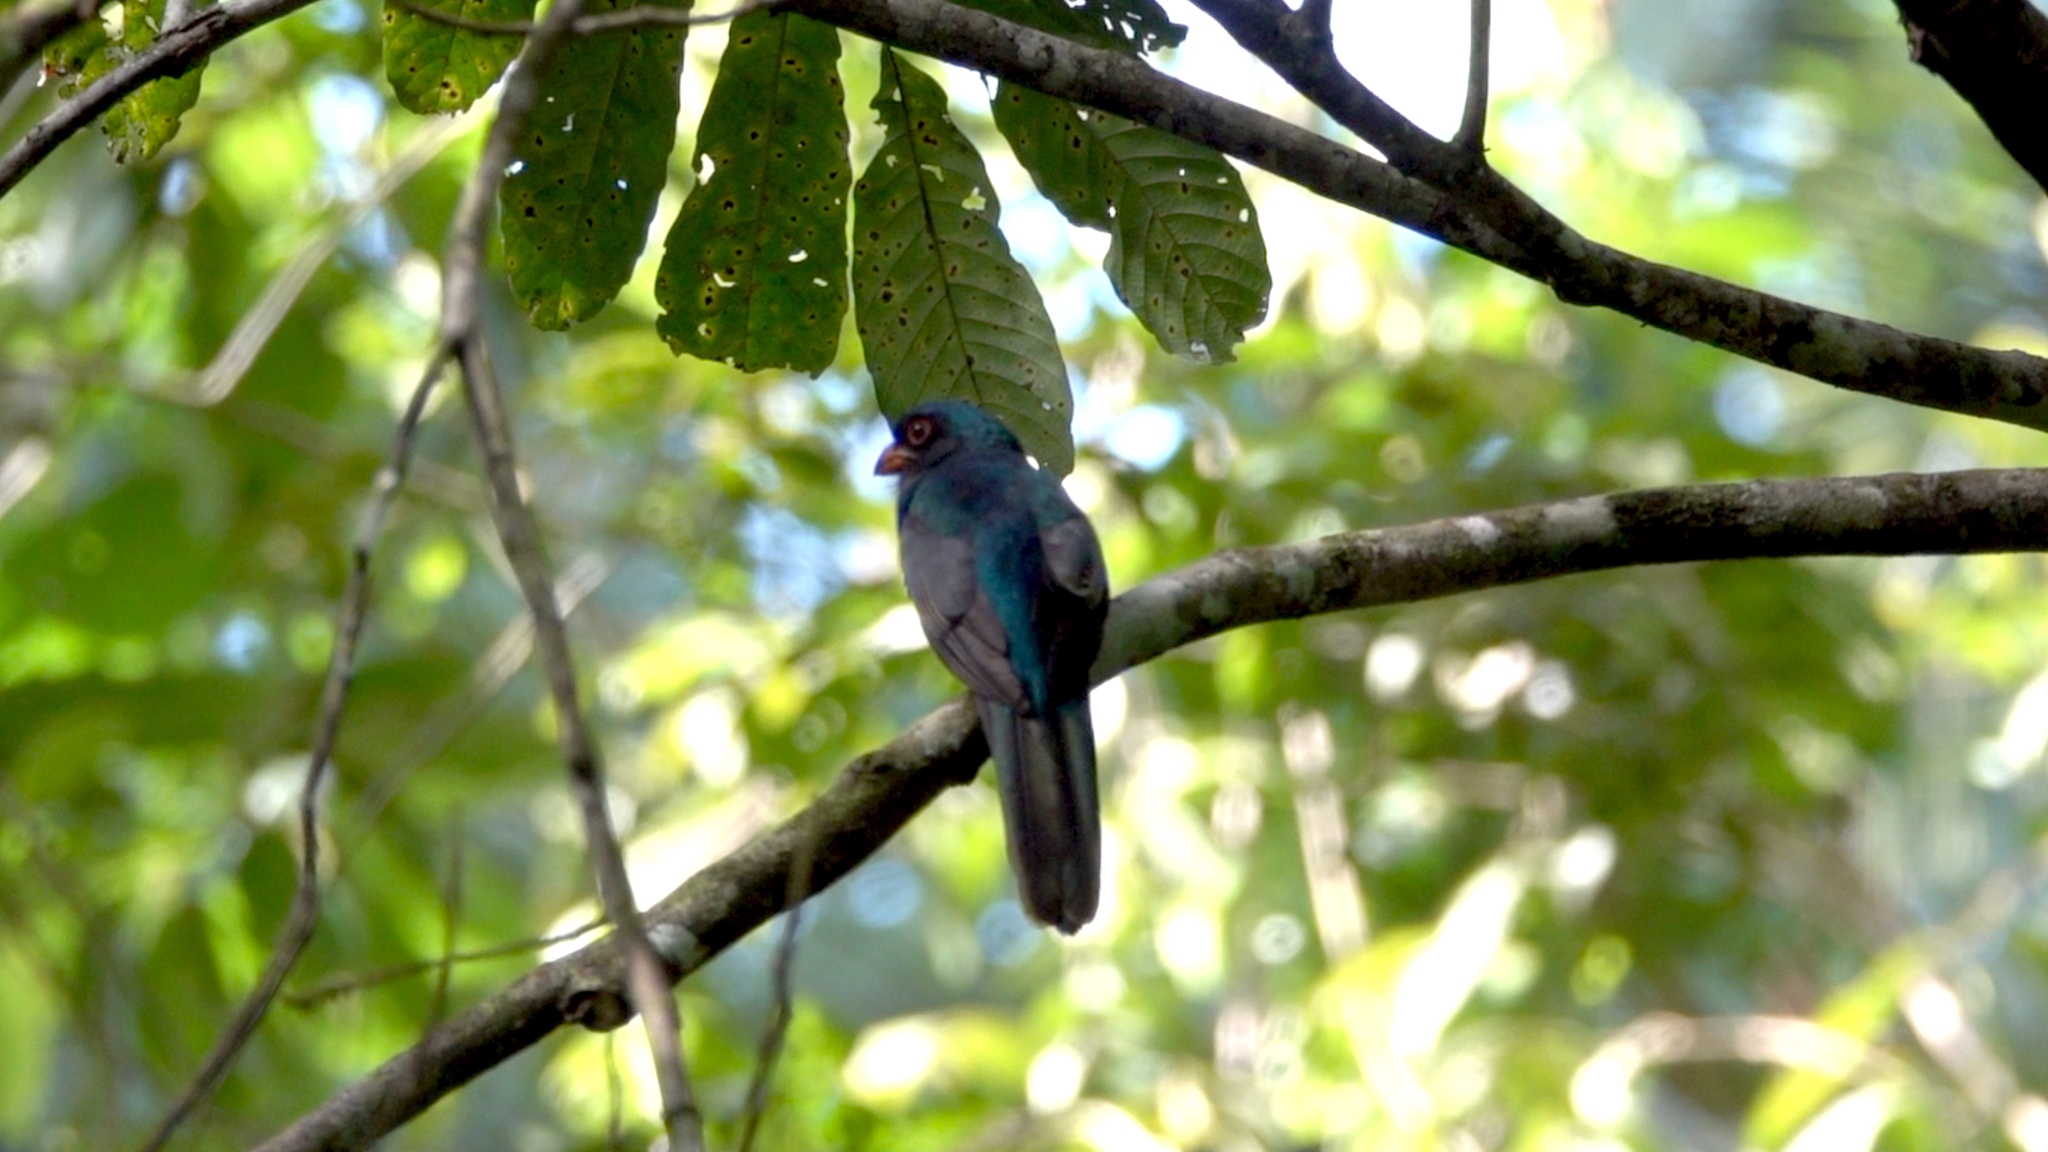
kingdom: Animalia
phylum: Chordata
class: Aves
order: Trogoniformes
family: Trogonidae
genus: Trogon
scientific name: Trogon massena
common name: Slaty-tailed trogon
